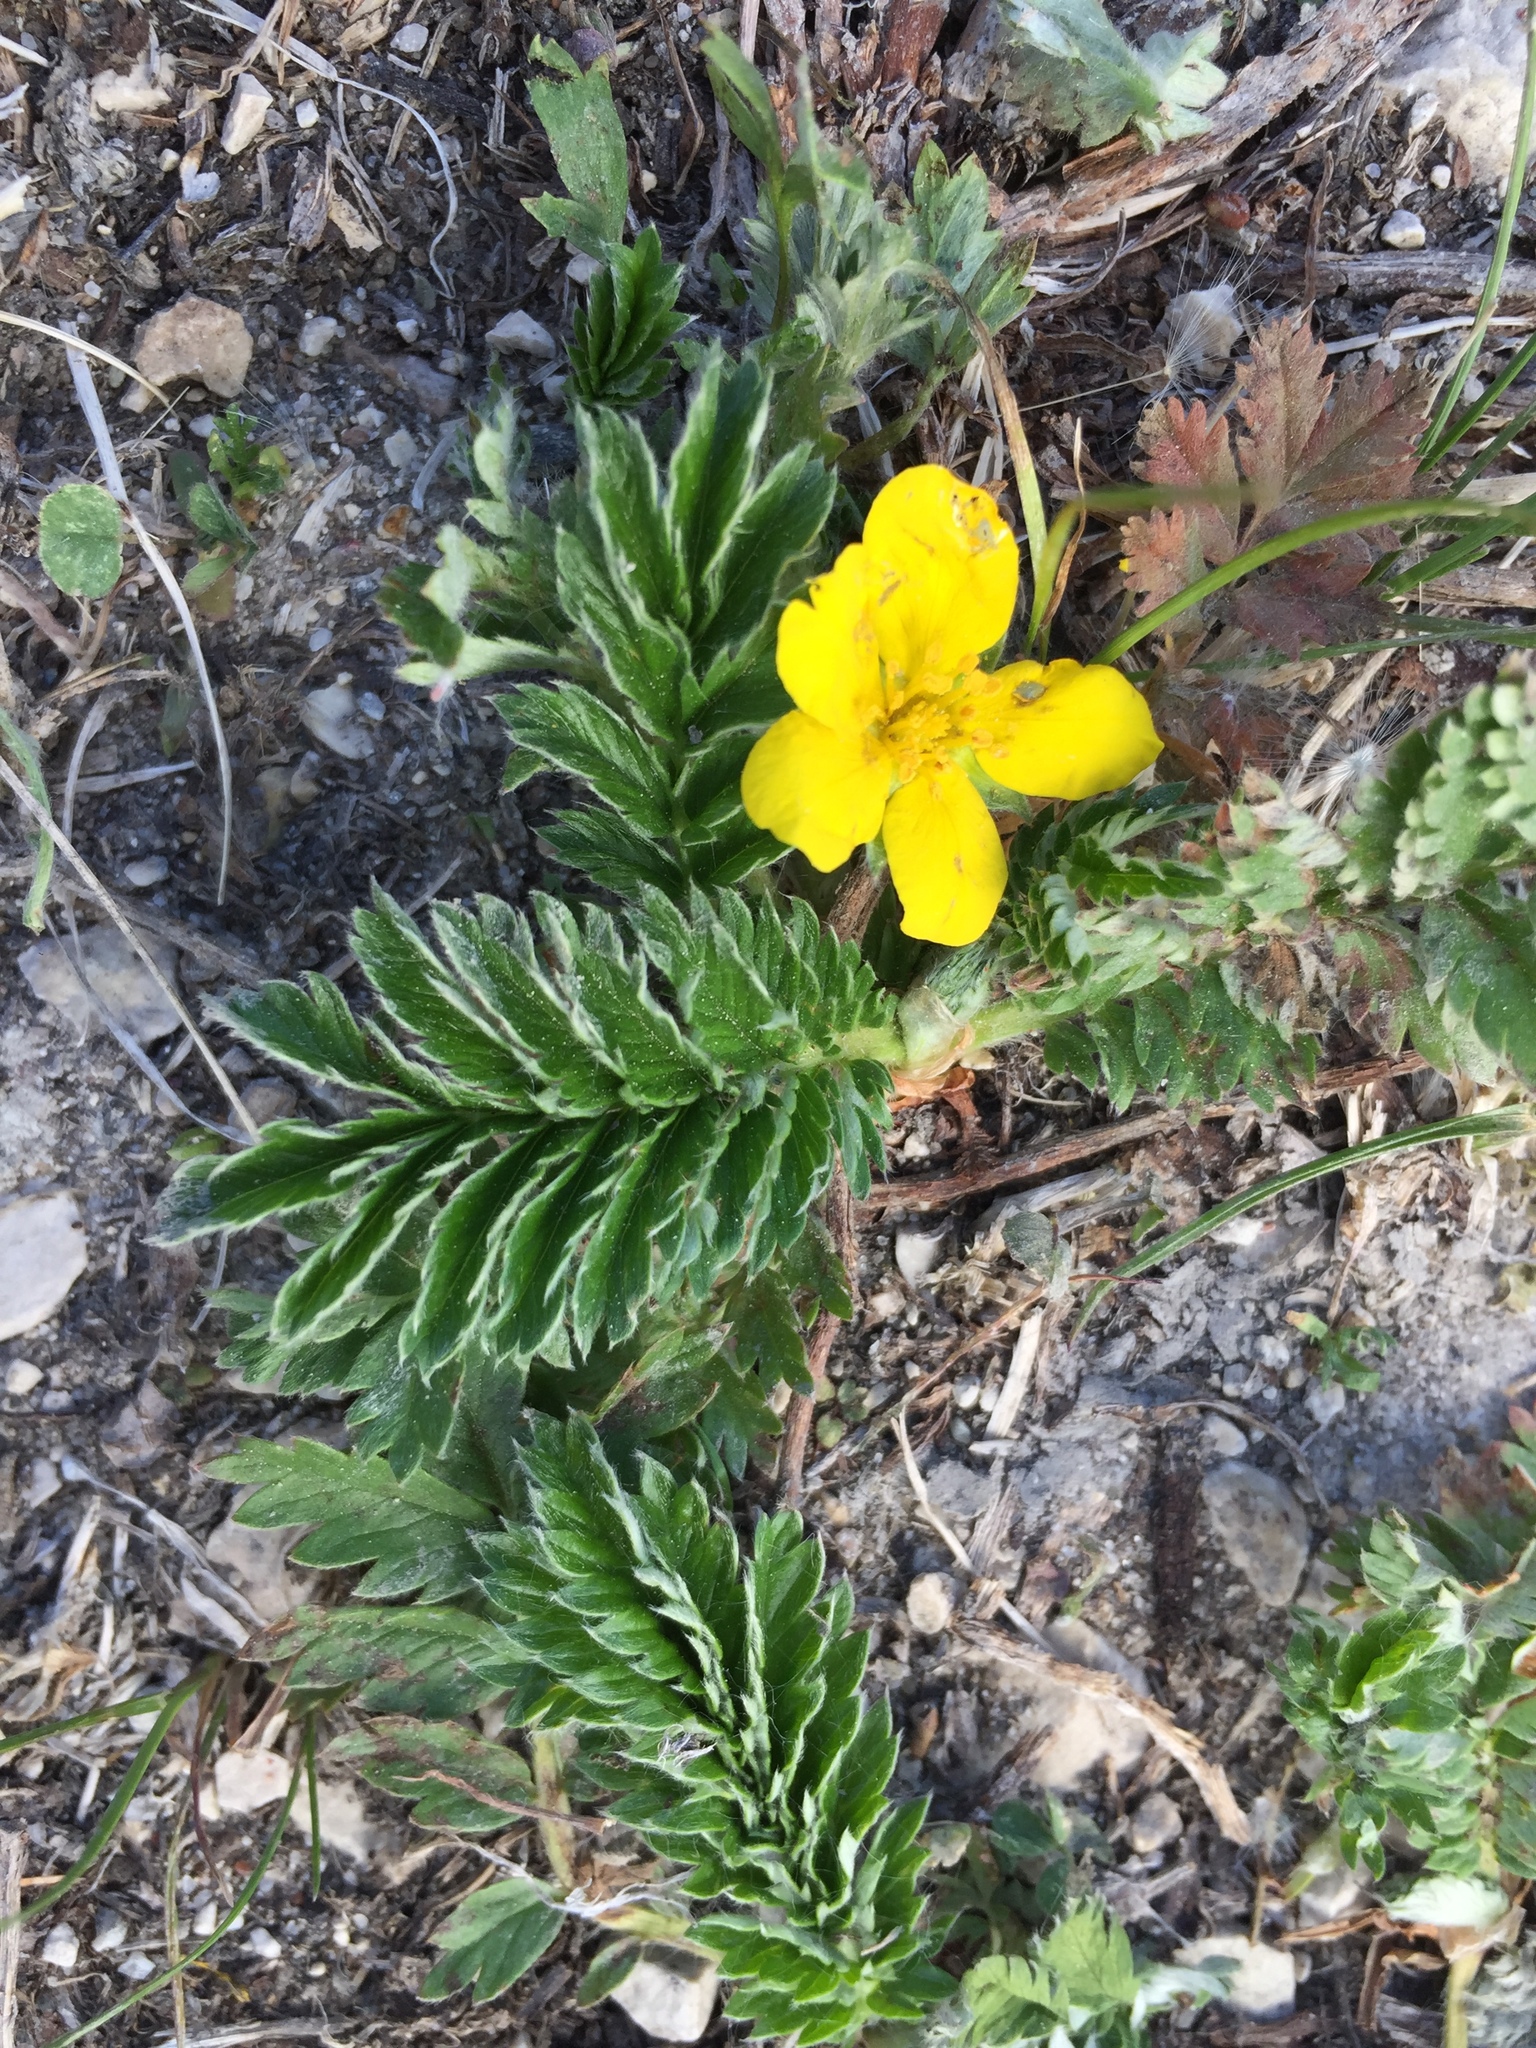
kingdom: Plantae
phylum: Tracheophyta
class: Magnoliopsida
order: Rosales
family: Rosaceae
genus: Argentina
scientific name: Argentina anserina
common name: Common silverweed
